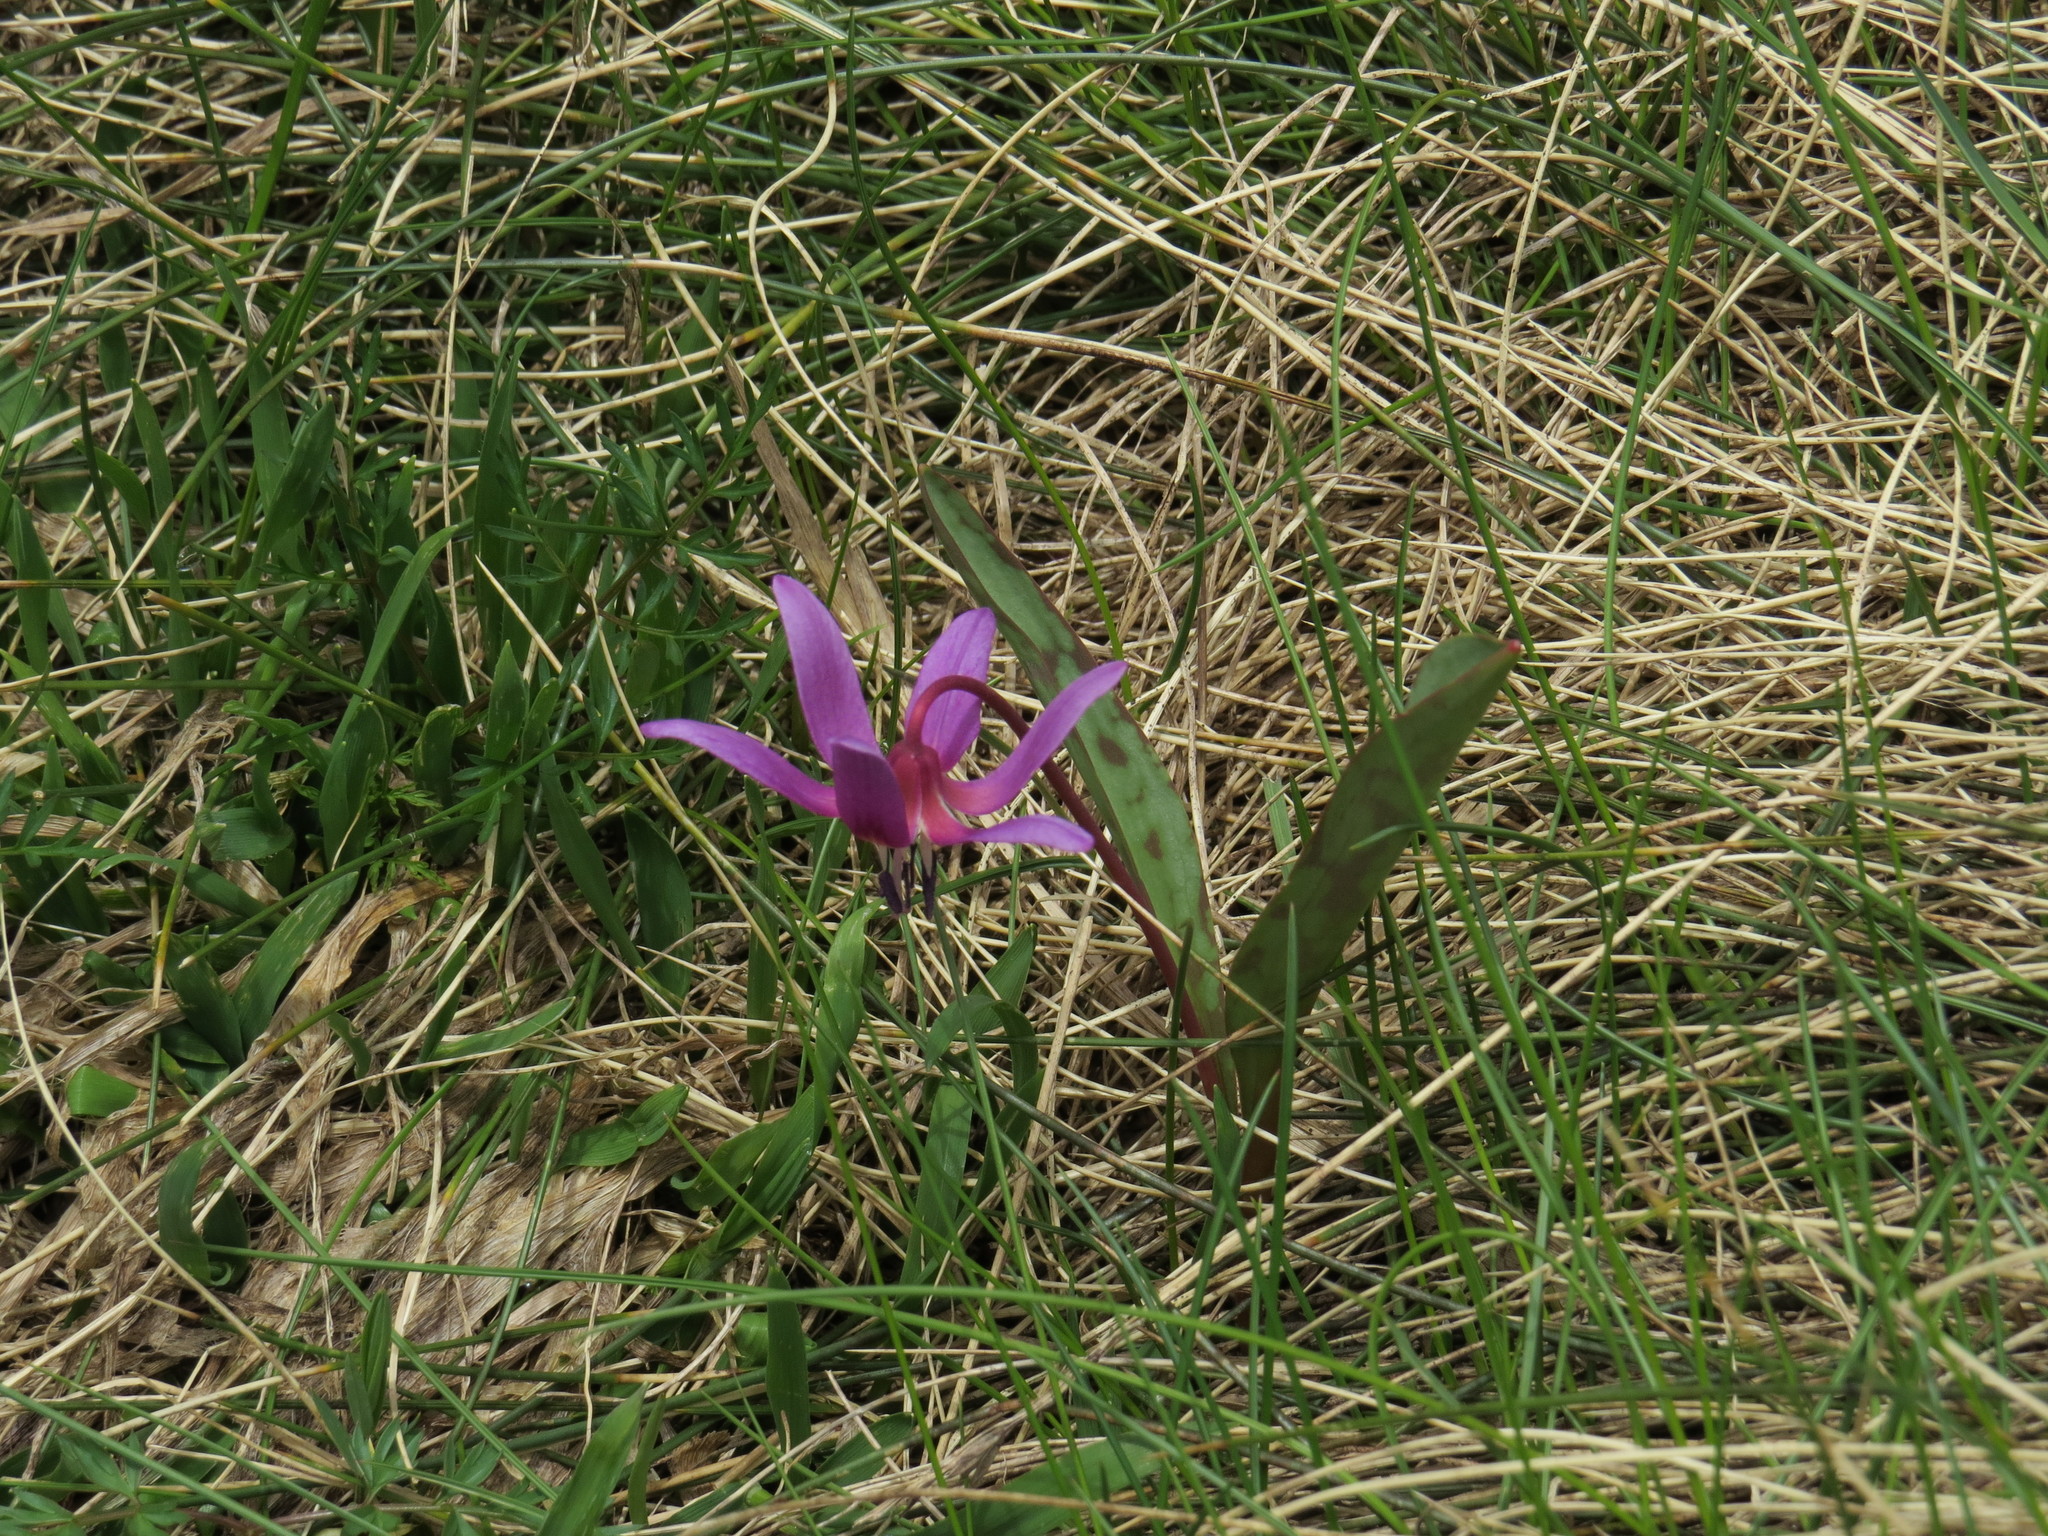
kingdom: Plantae
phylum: Tracheophyta
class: Liliopsida
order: Liliales
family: Liliaceae
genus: Erythronium
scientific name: Erythronium dens-canis
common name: Dog's-tooth-violet
